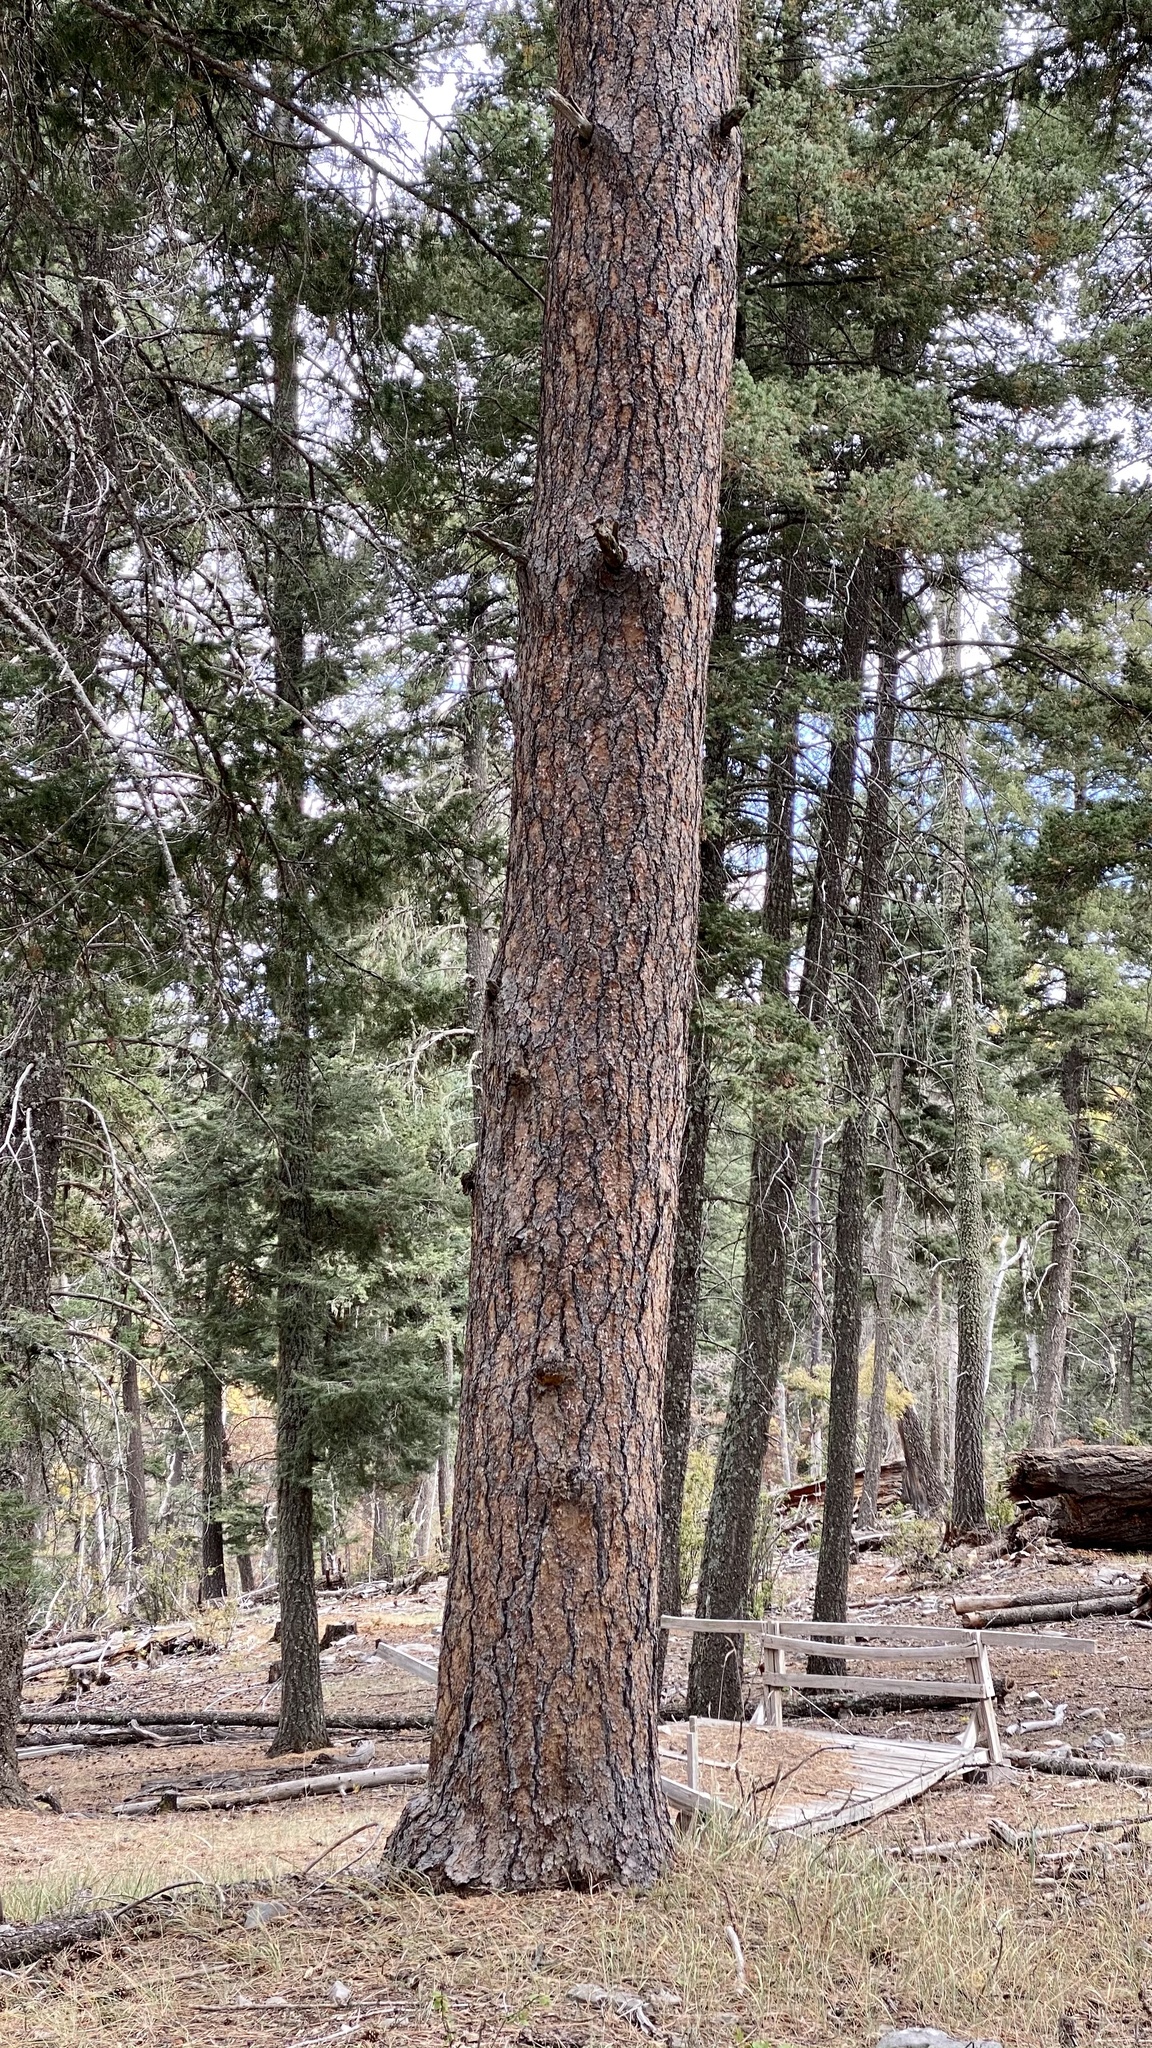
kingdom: Plantae
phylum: Tracheophyta
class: Pinopsida
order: Pinales
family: Pinaceae
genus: Pinus
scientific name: Pinus ponderosa
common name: Western yellow-pine
